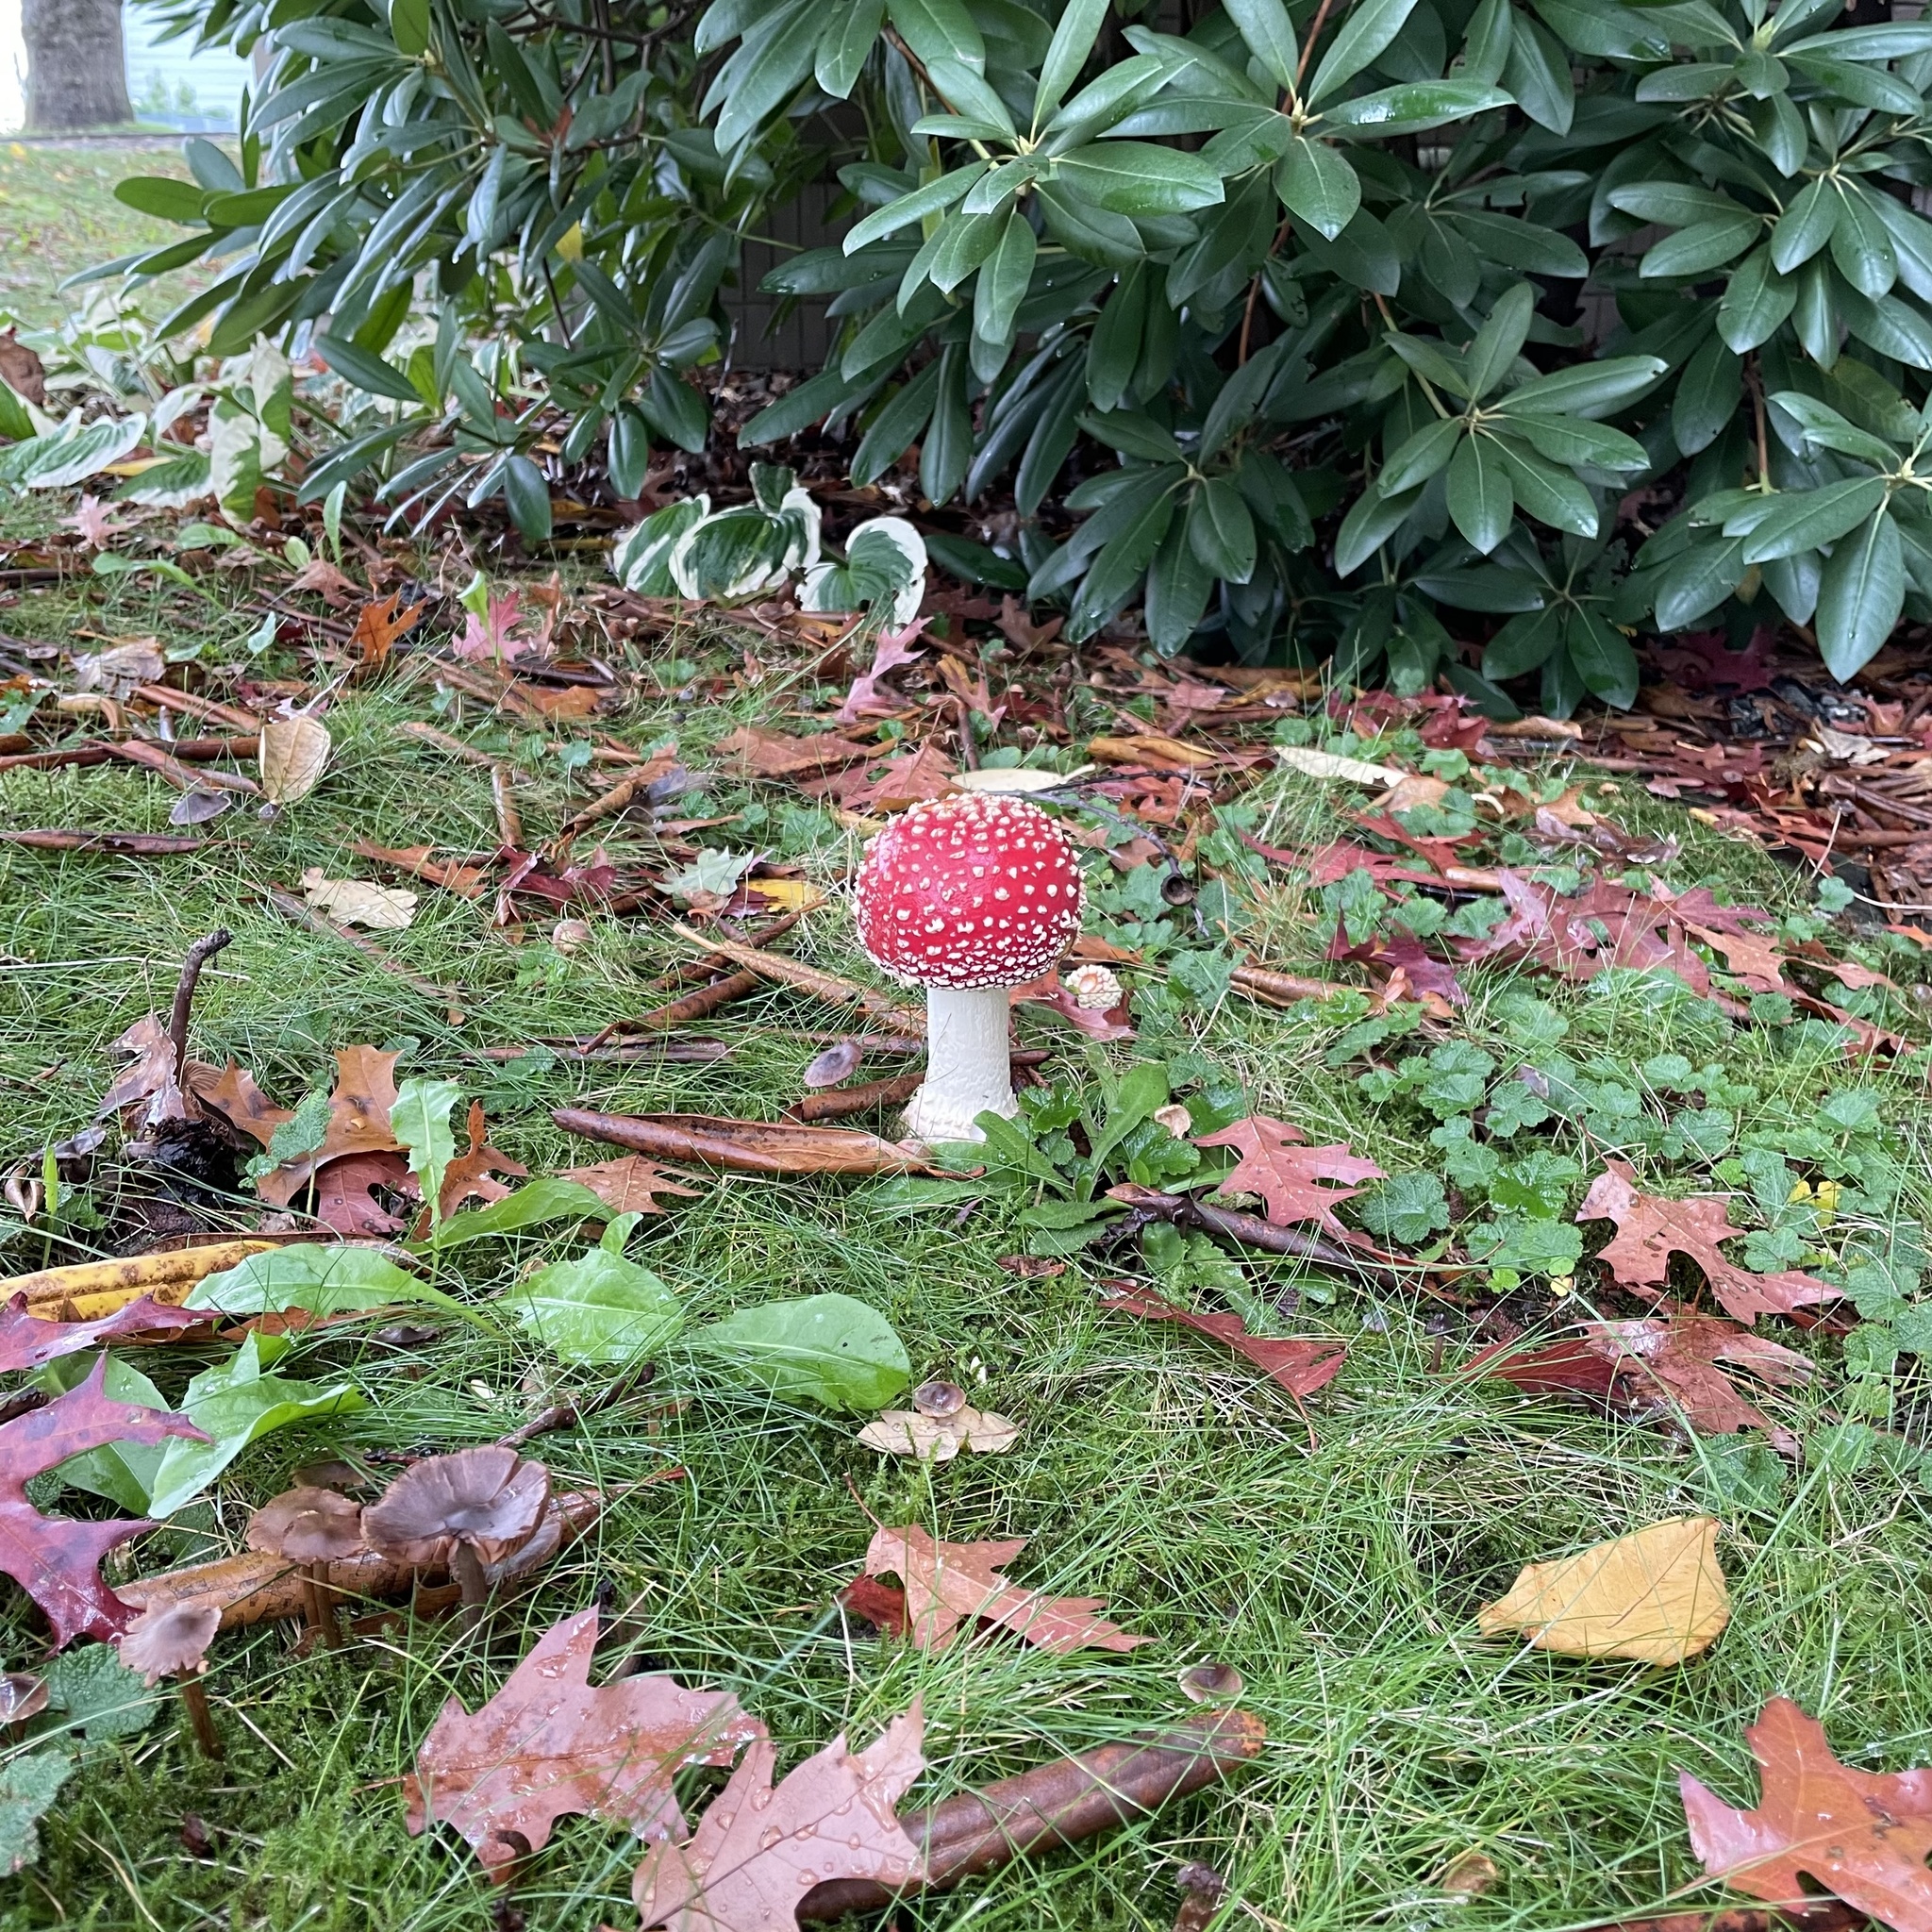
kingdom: Fungi
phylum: Basidiomycota
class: Agaricomycetes
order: Agaricales
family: Amanitaceae
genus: Amanita
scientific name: Amanita muscaria
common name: Fly agaric
